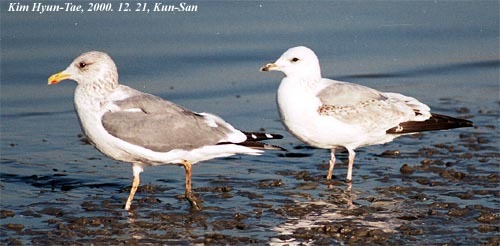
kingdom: Animalia
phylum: Chordata
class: Aves
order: Charadriiformes
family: Laridae
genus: Larus
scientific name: Larus vegae
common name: Vega gull
